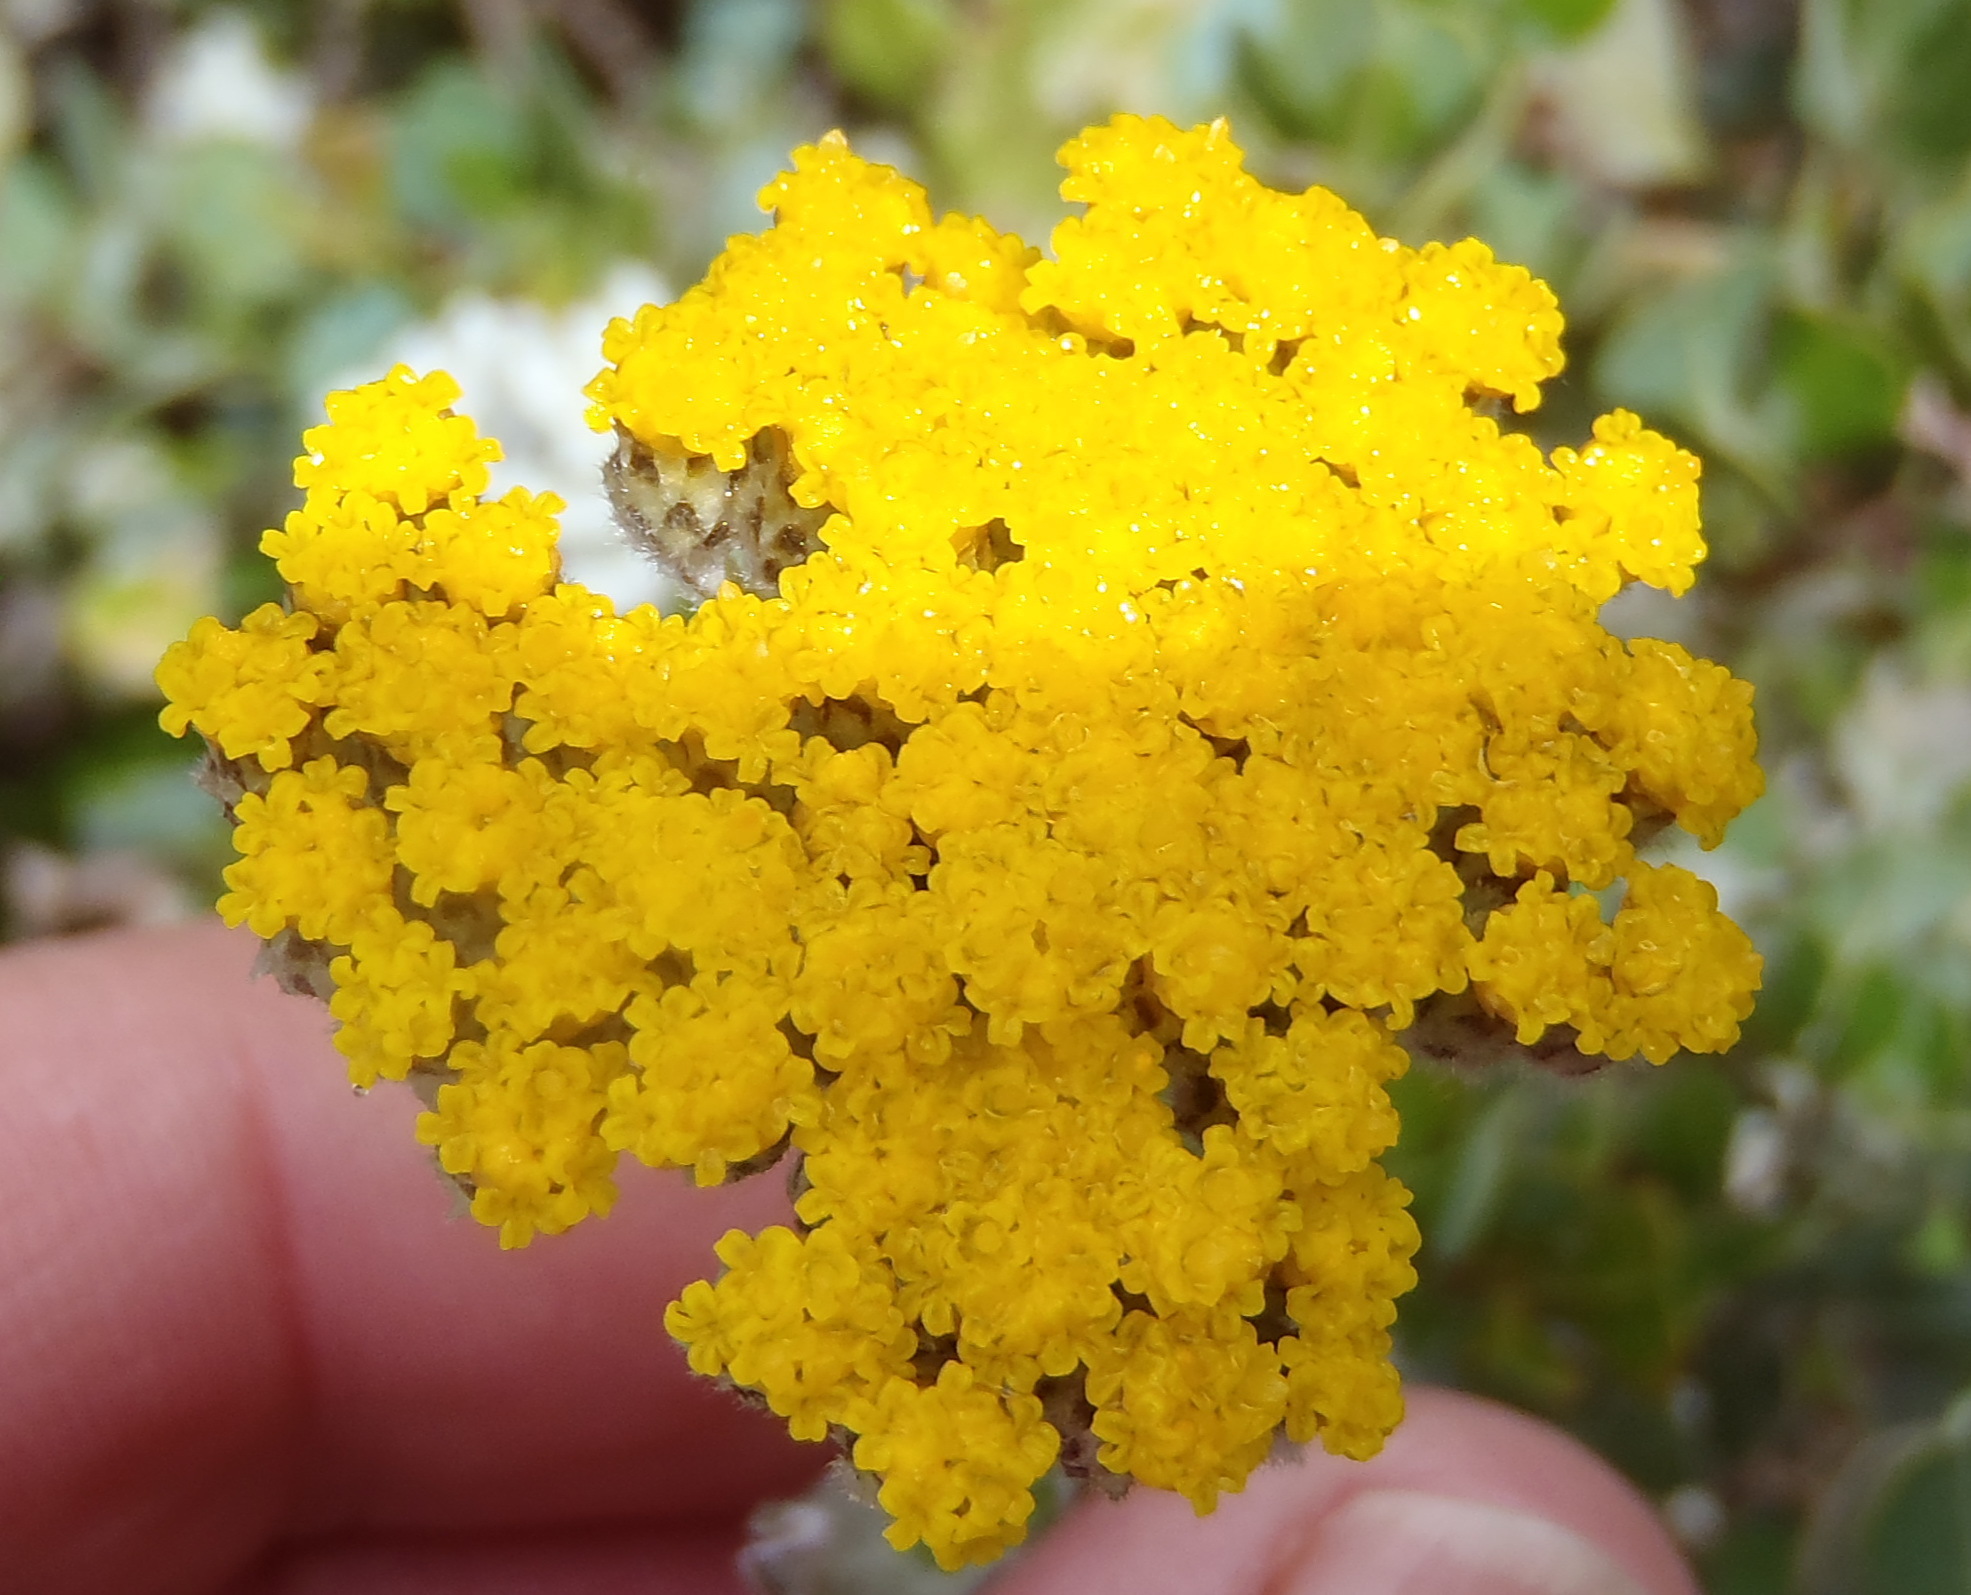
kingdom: Plantae
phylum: Tracheophyta
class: Magnoliopsida
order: Asterales
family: Asteraceae
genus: Helichrysum
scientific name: Helichrysum dasyanthum
